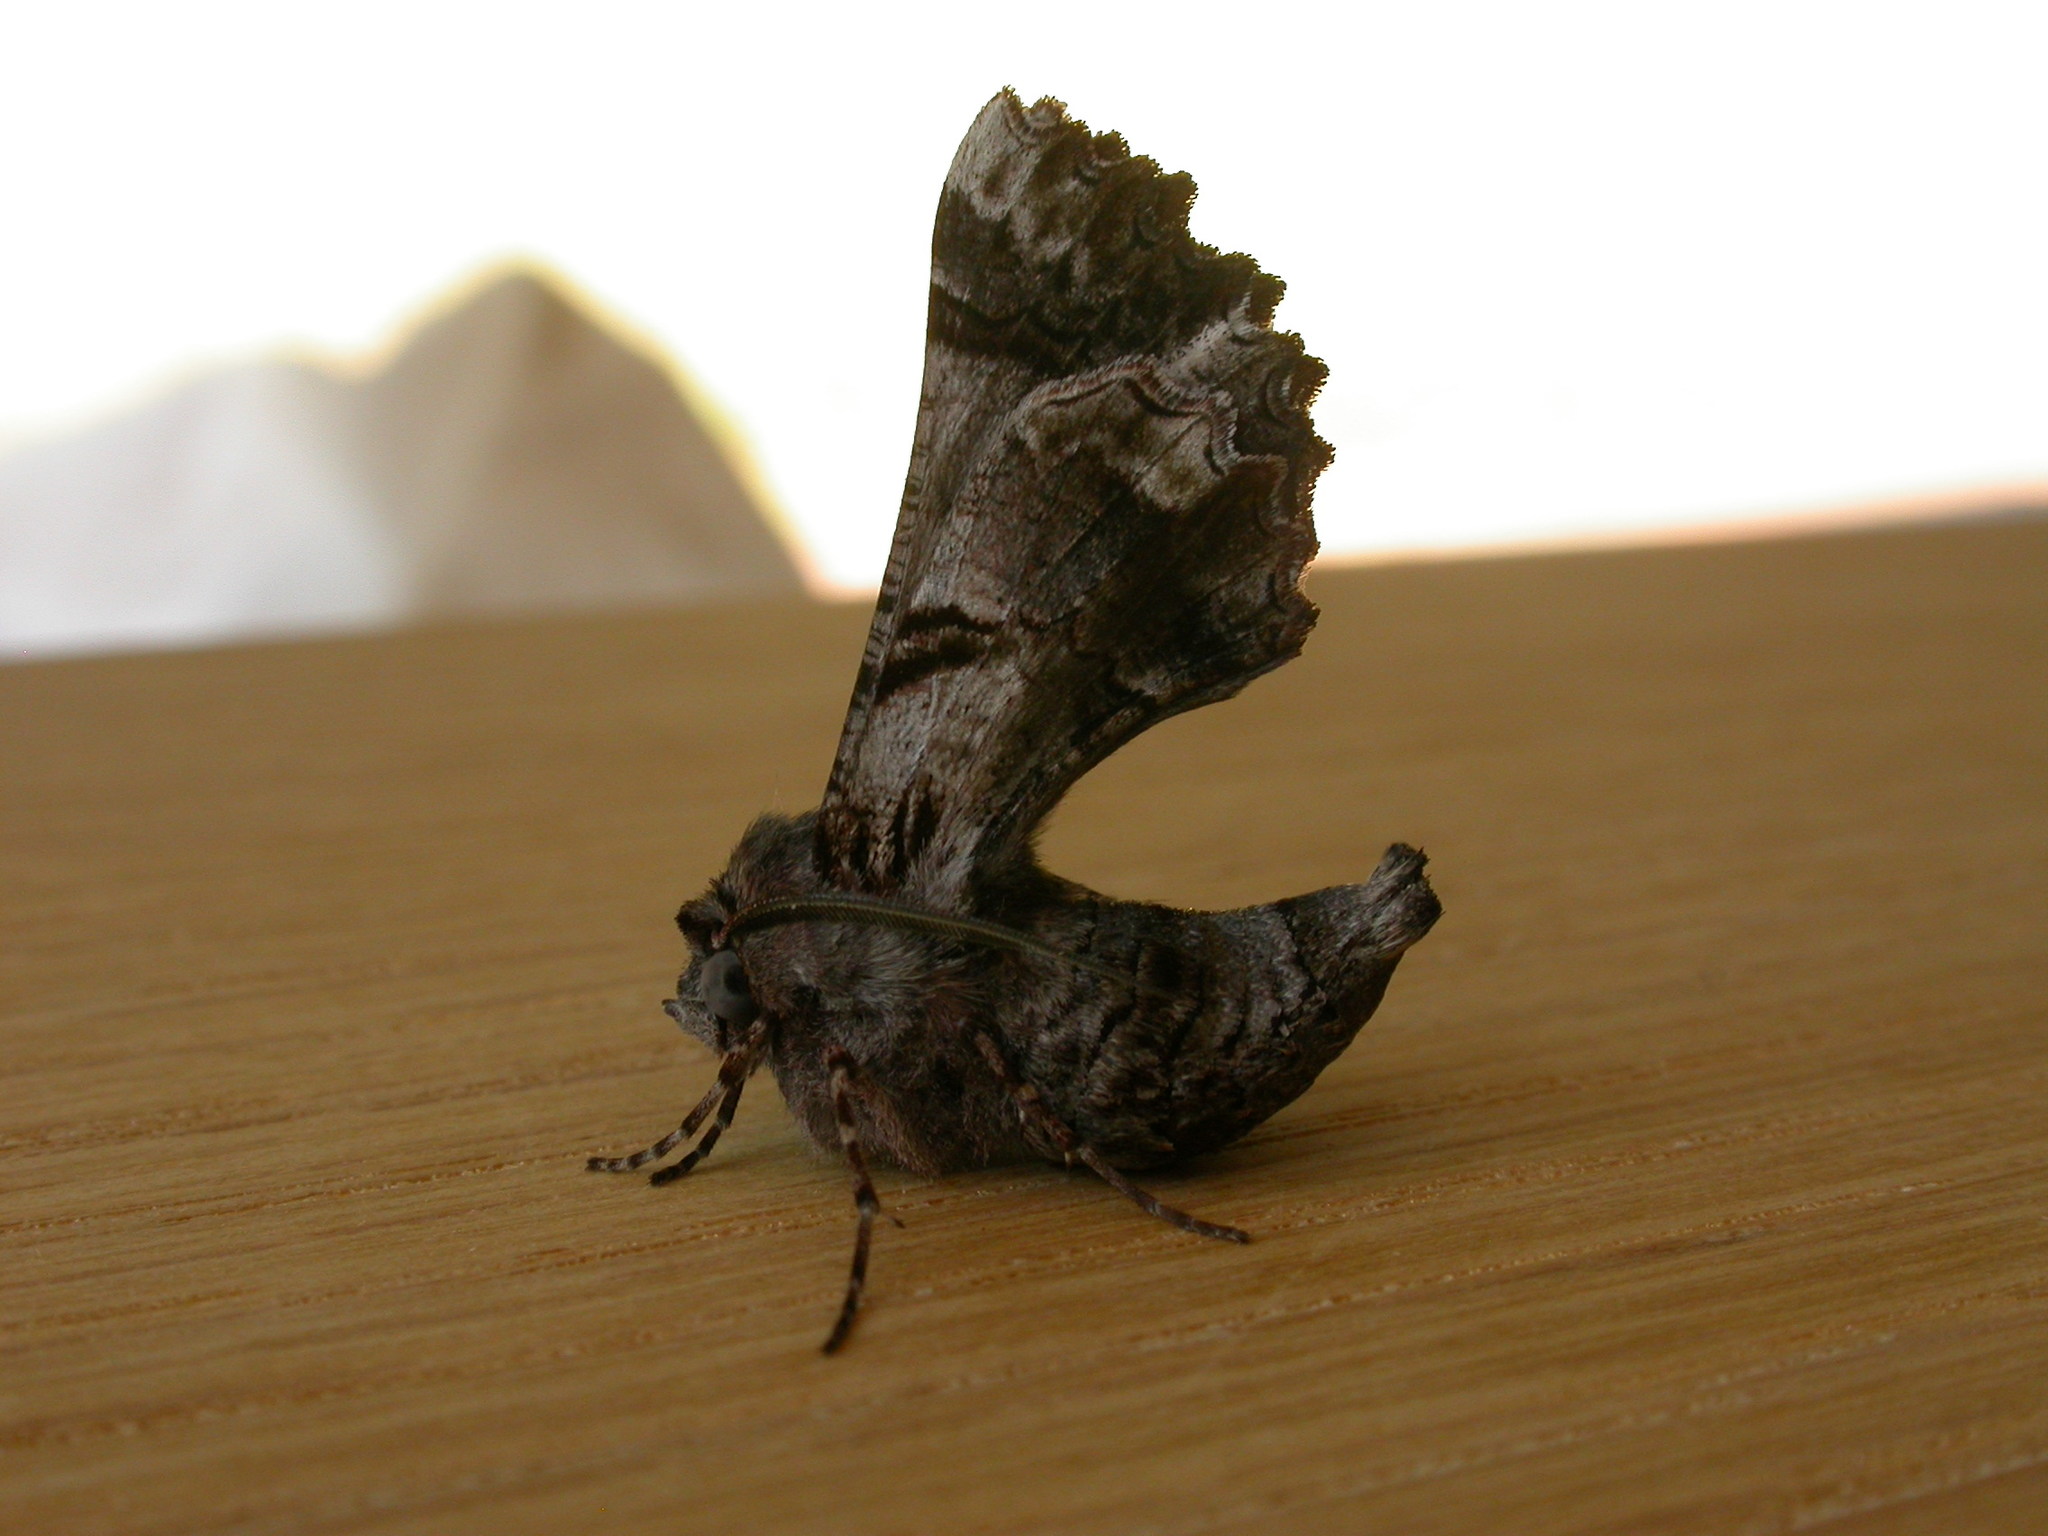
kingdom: Animalia
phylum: Arthropoda
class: Insecta
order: Lepidoptera
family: Geometridae
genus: Hypographa
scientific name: Hypographa phlegetonaria
